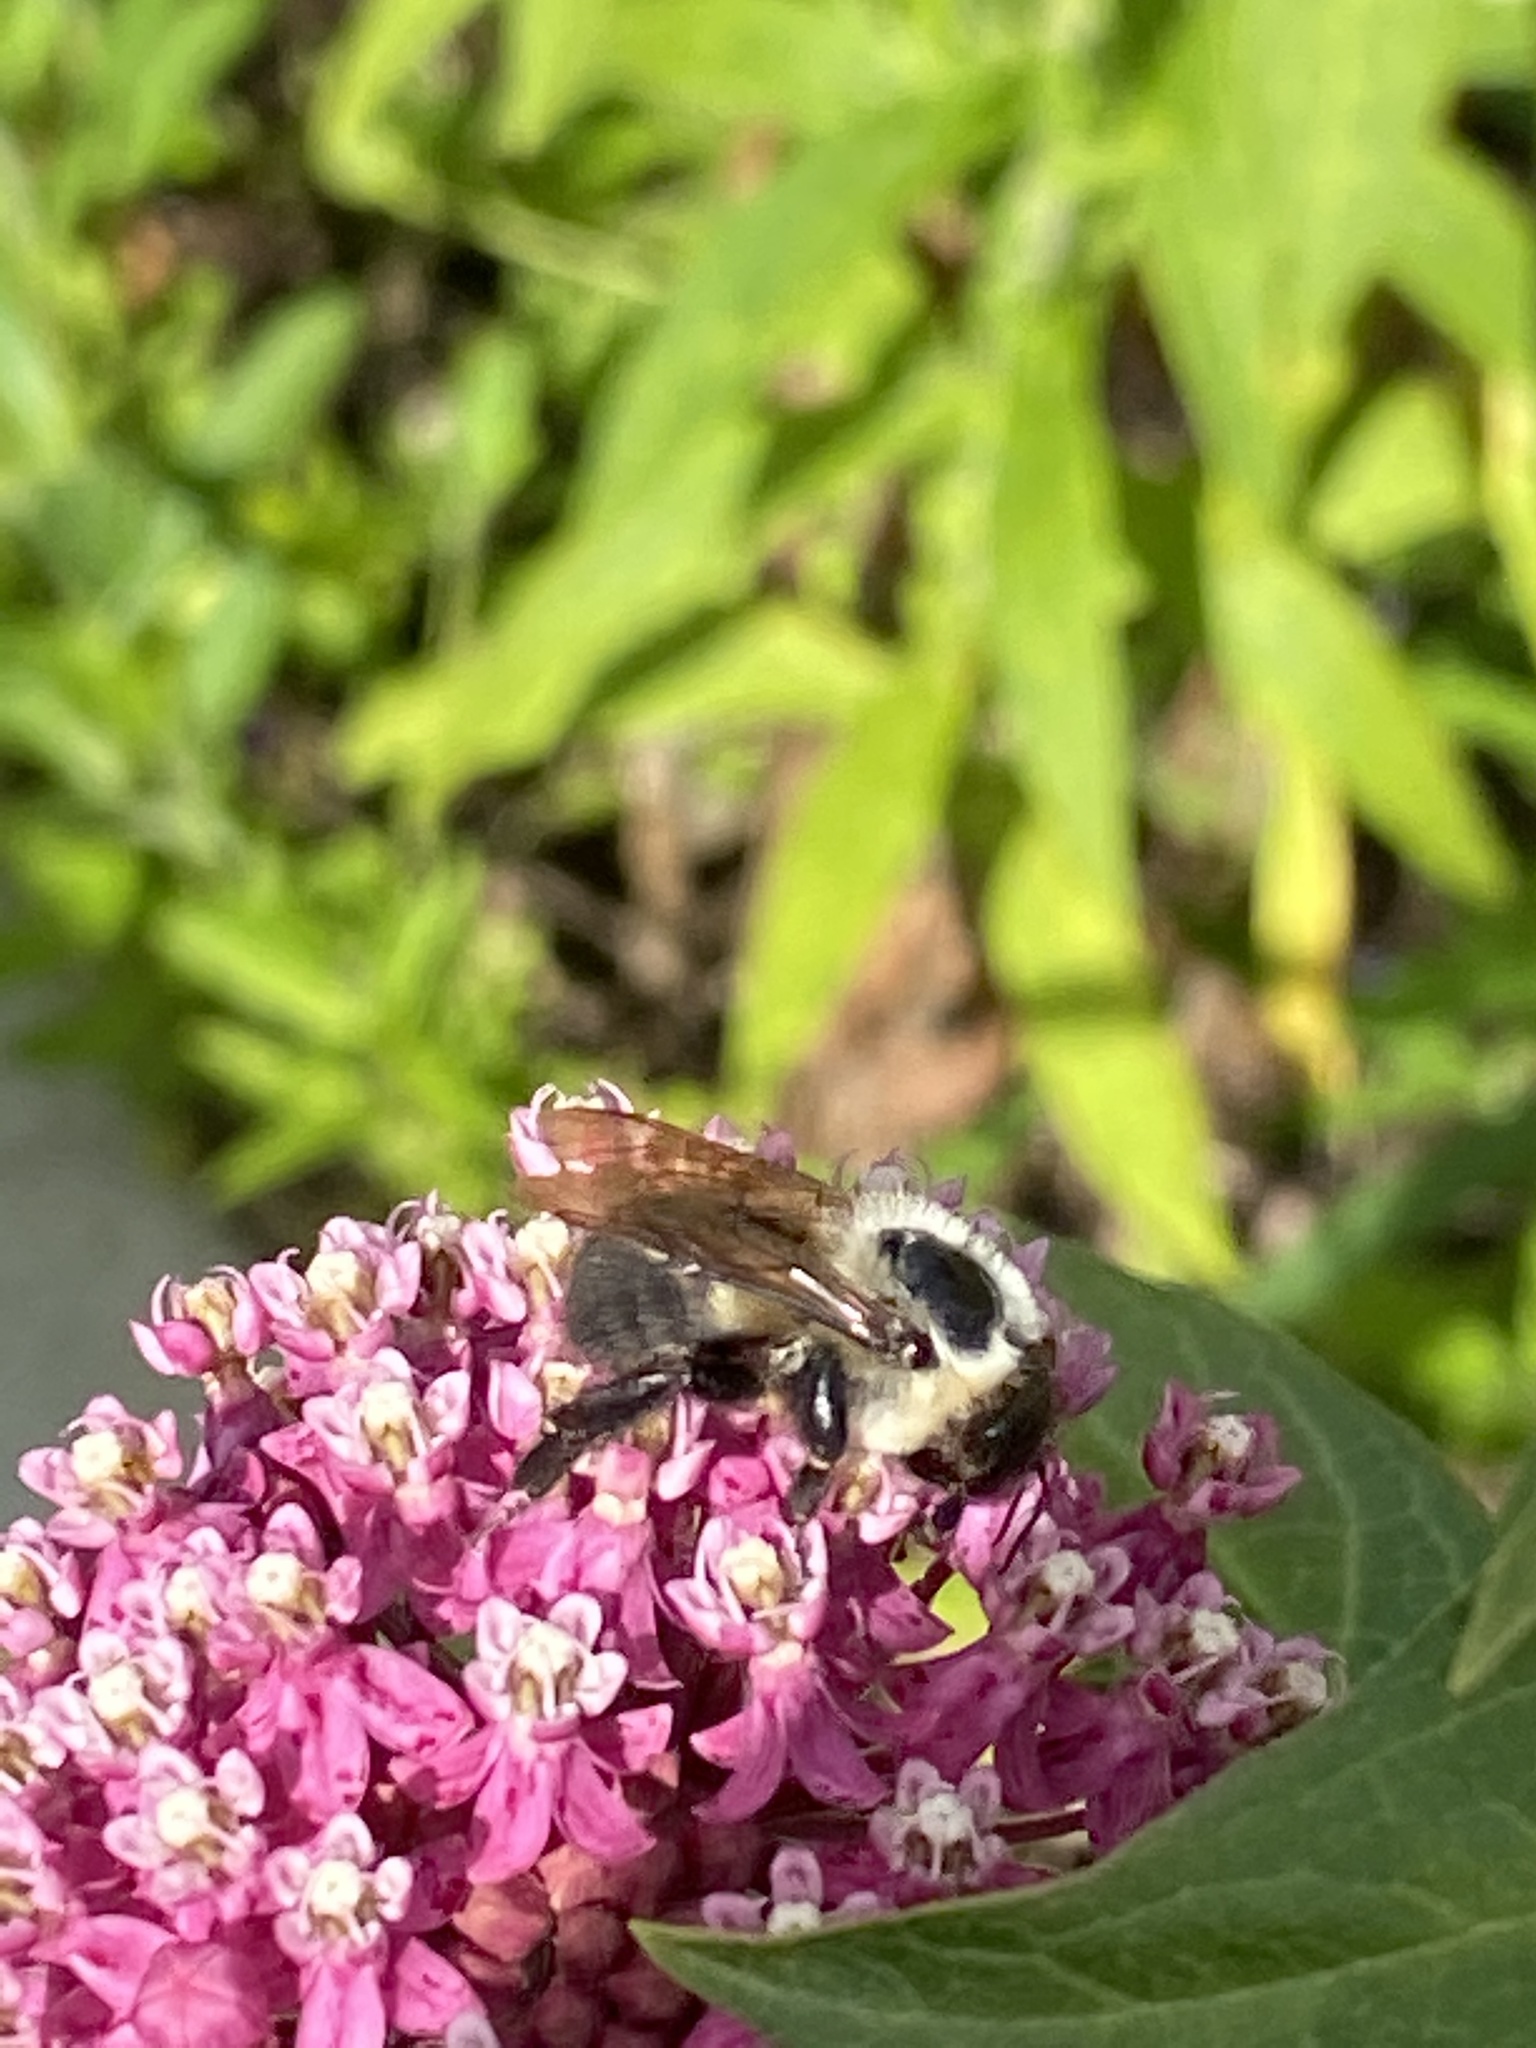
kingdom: Animalia
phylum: Arthropoda
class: Insecta
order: Hymenoptera
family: Apidae
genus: Bombus
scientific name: Bombus griseocollis
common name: Brown-belted bumble bee
